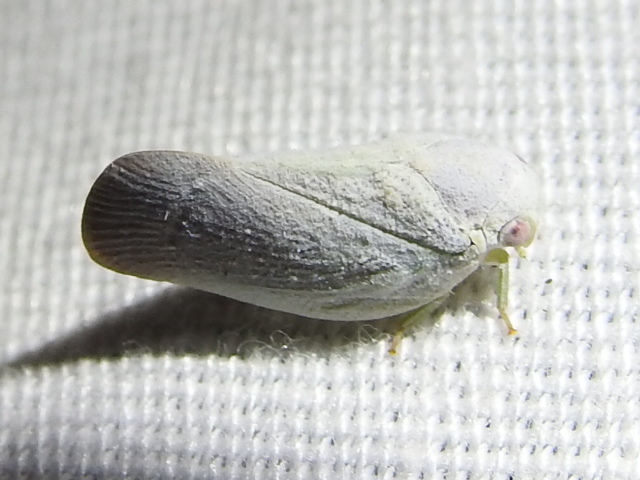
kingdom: Animalia
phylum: Arthropoda
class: Insecta
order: Hemiptera
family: Flatidae
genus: Flatormenis
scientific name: Flatormenis saucia
